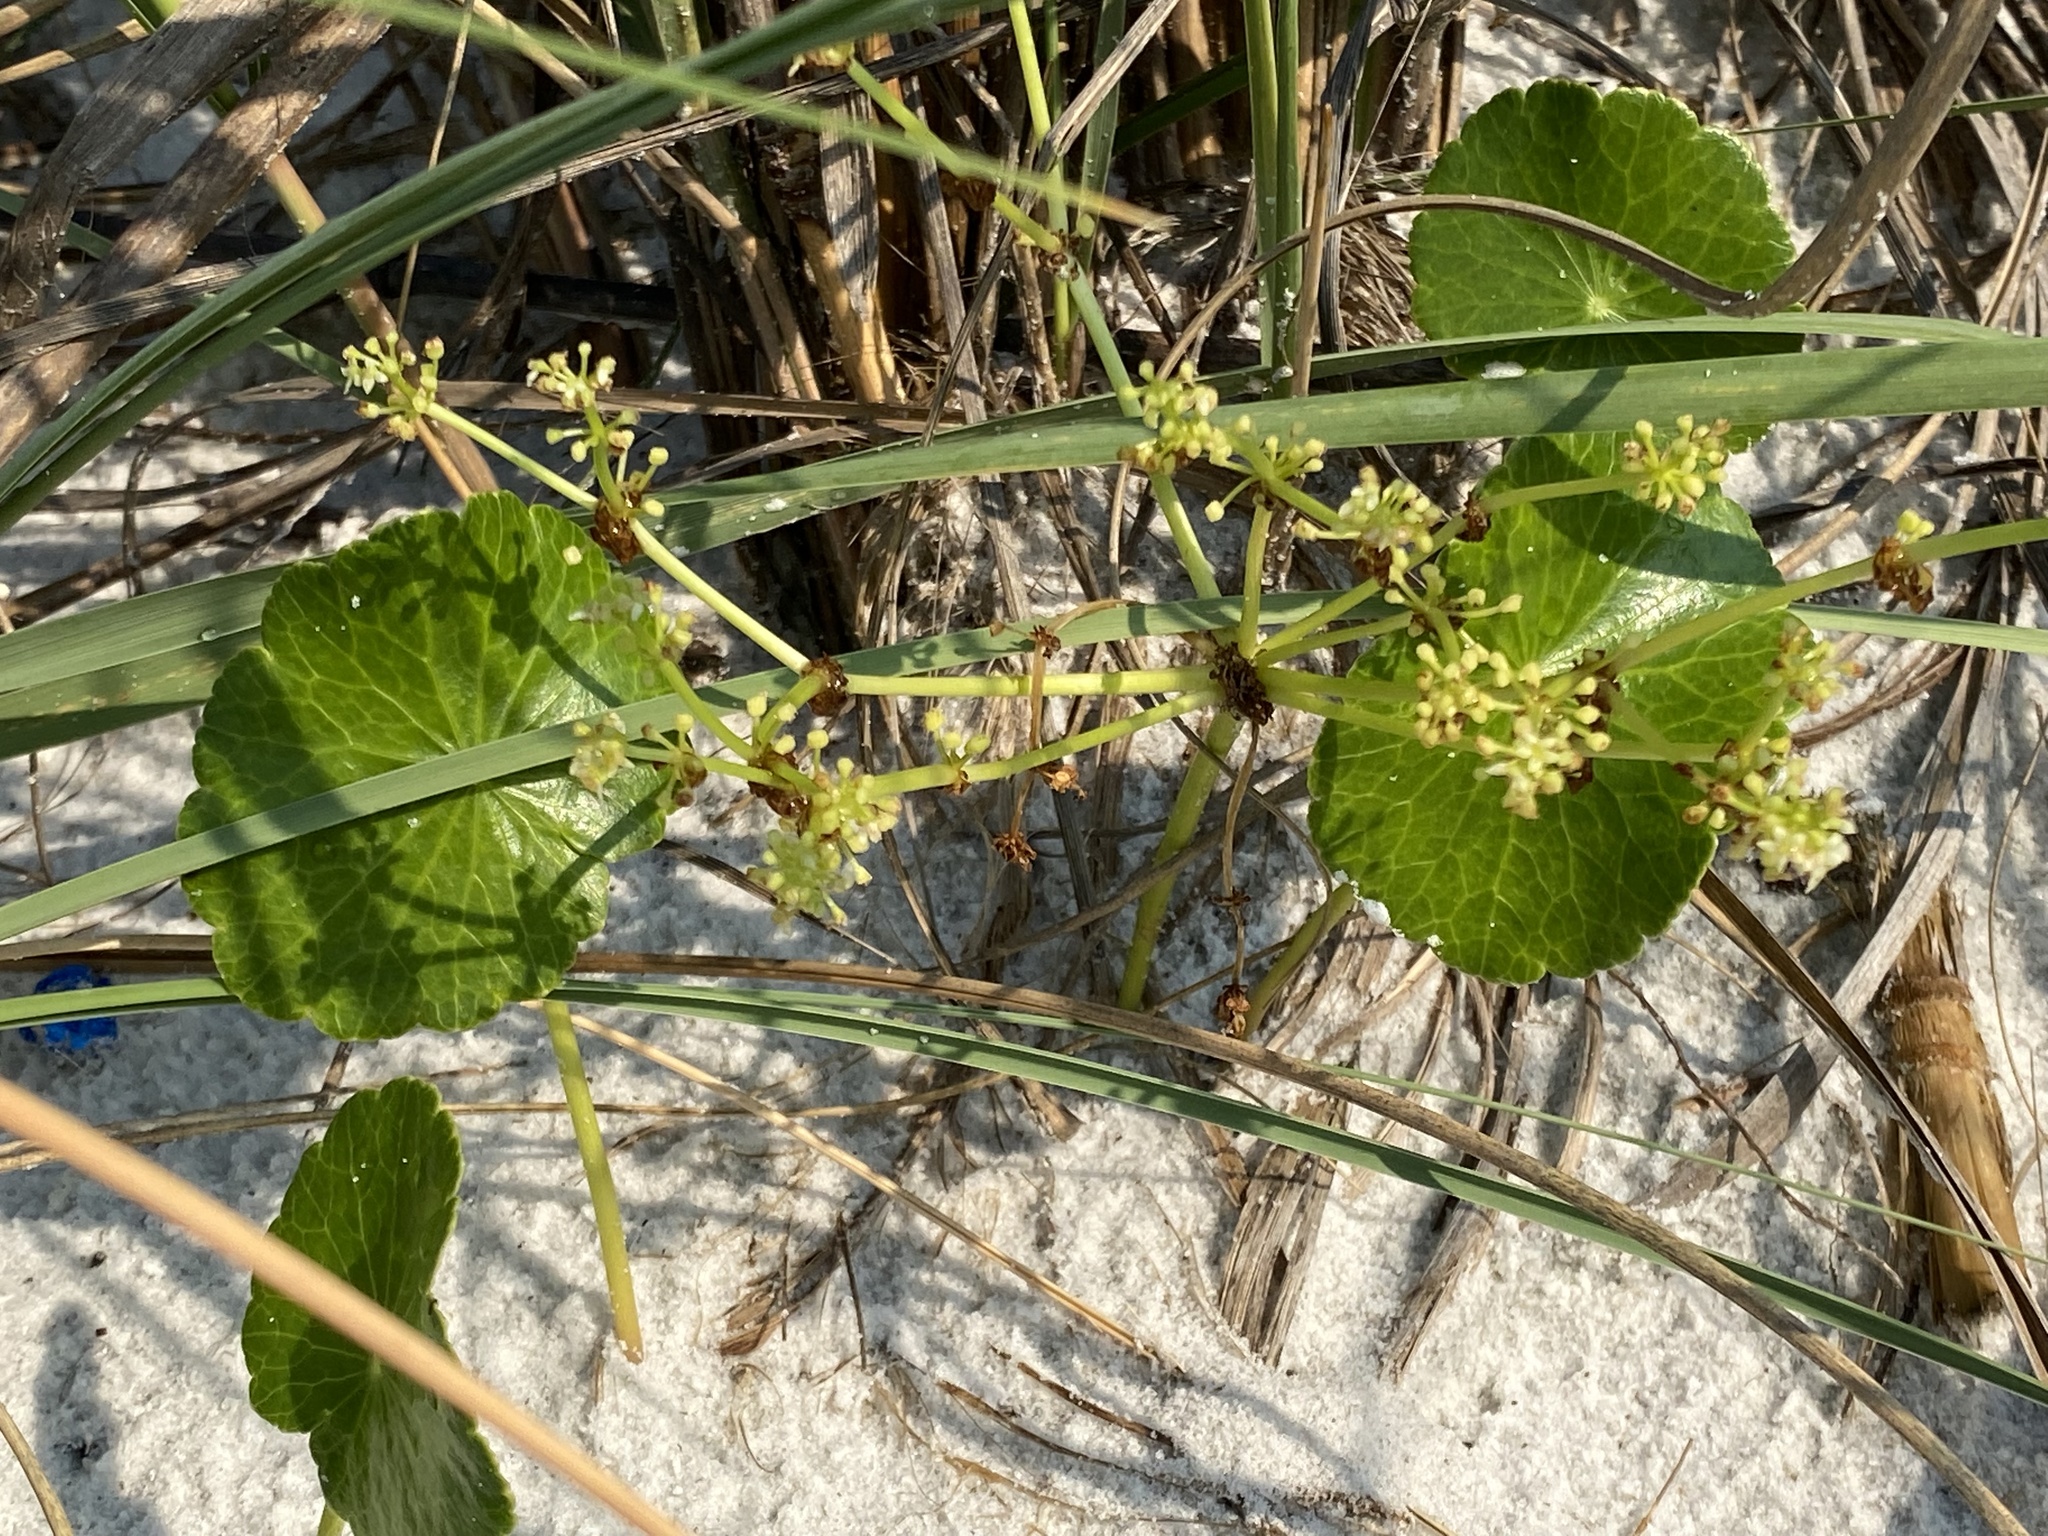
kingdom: Plantae
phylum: Tracheophyta
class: Magnoliopsida
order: Apiales
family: Araliaceae
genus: Hydrocotyle
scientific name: Hydrocotyle bonariensis
